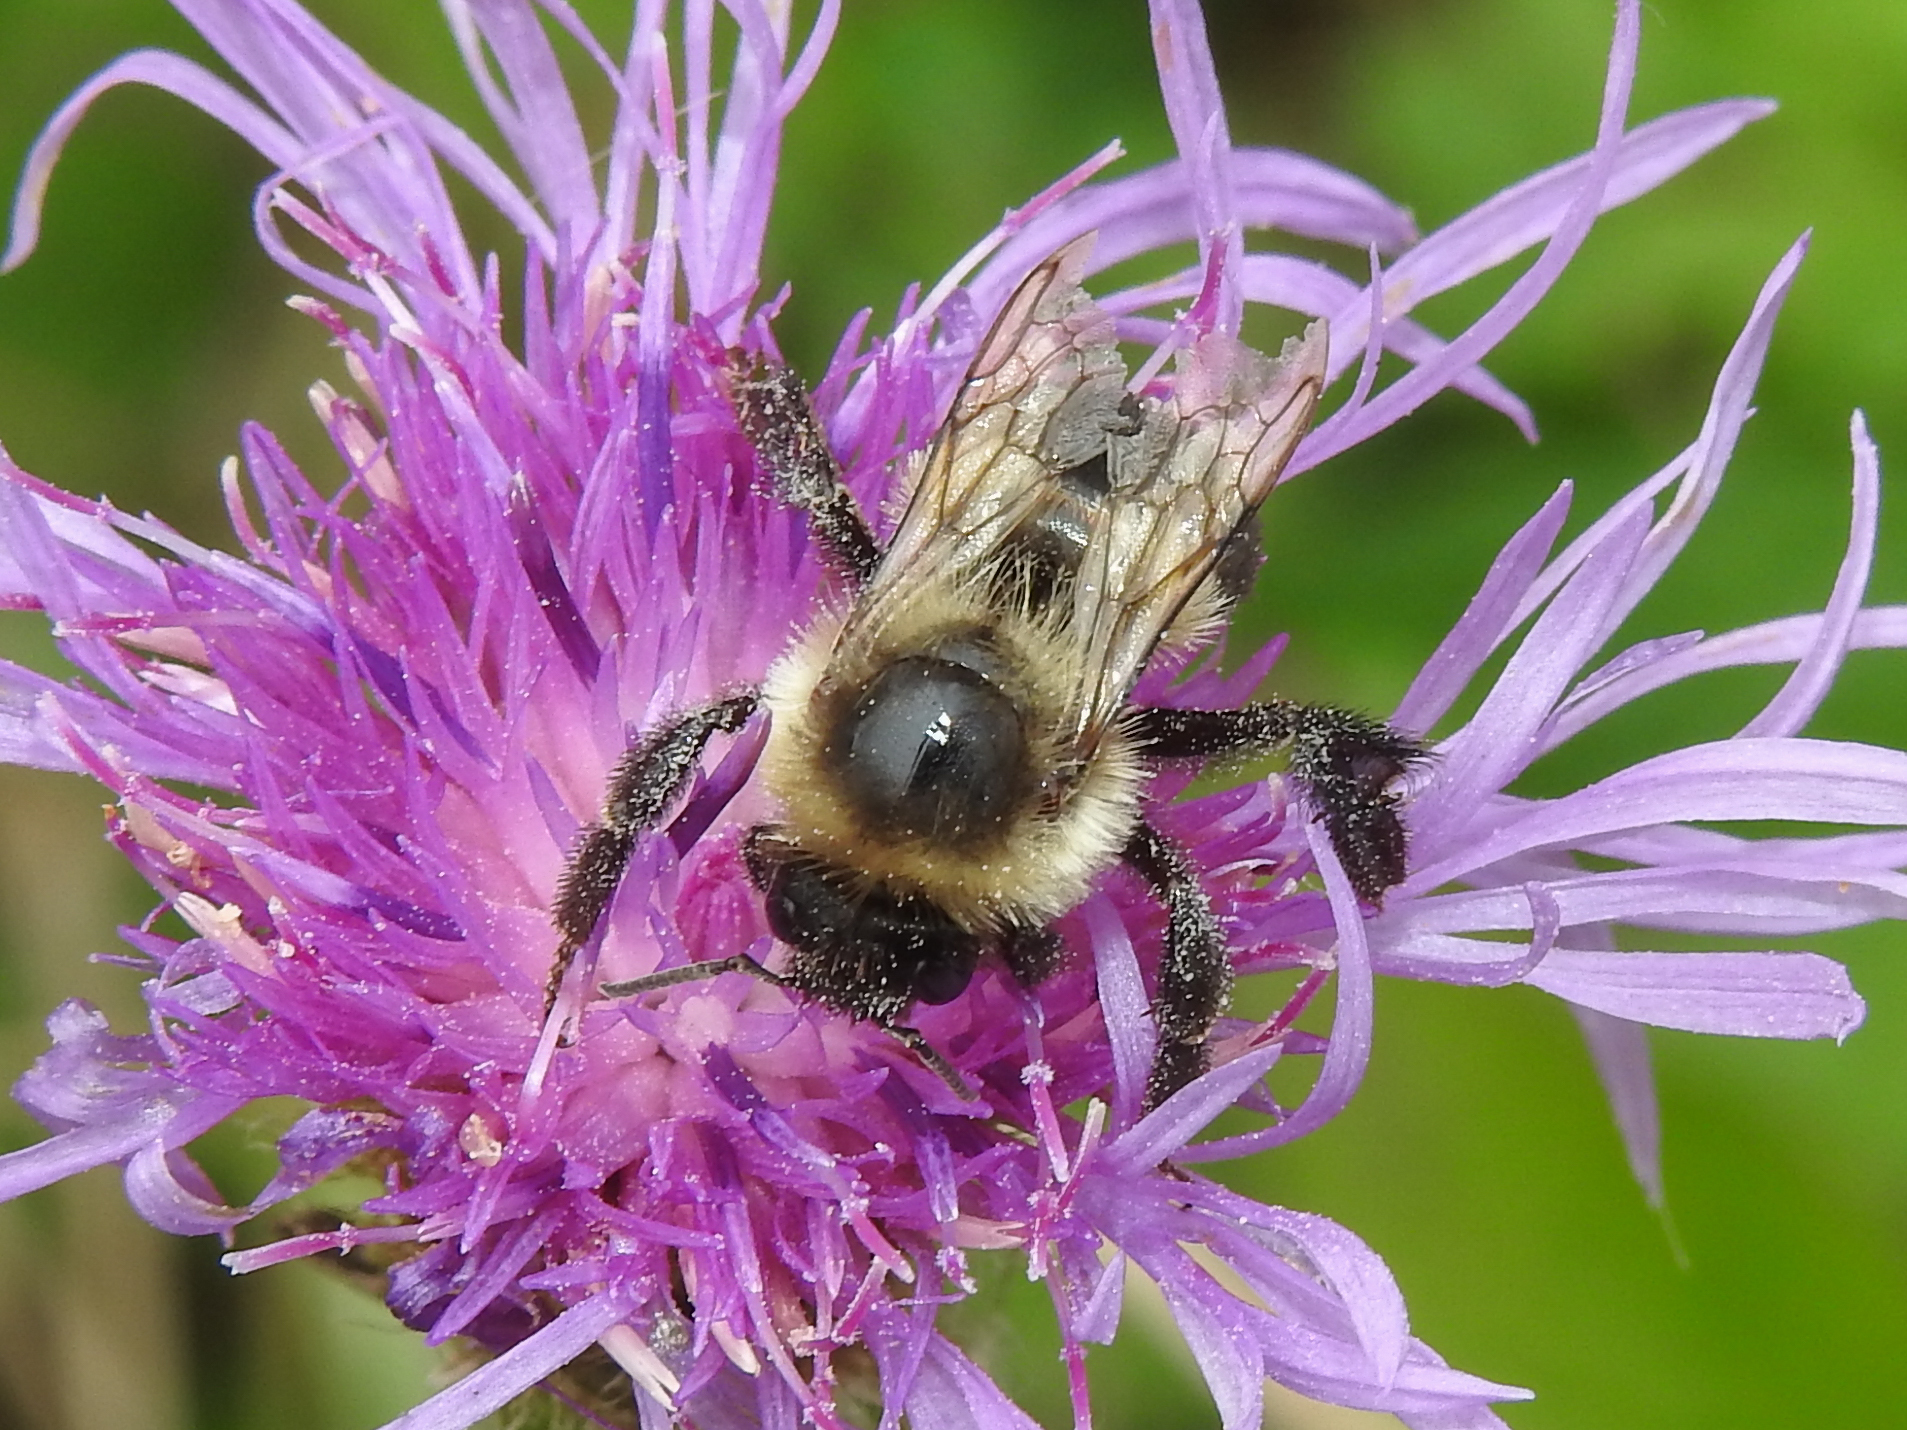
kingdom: Animalia
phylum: Arthropoda
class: Insecta
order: Hymenoptera
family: Apidae
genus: Bombus
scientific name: Bombus impatiens
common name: Common eastern bumble bee
